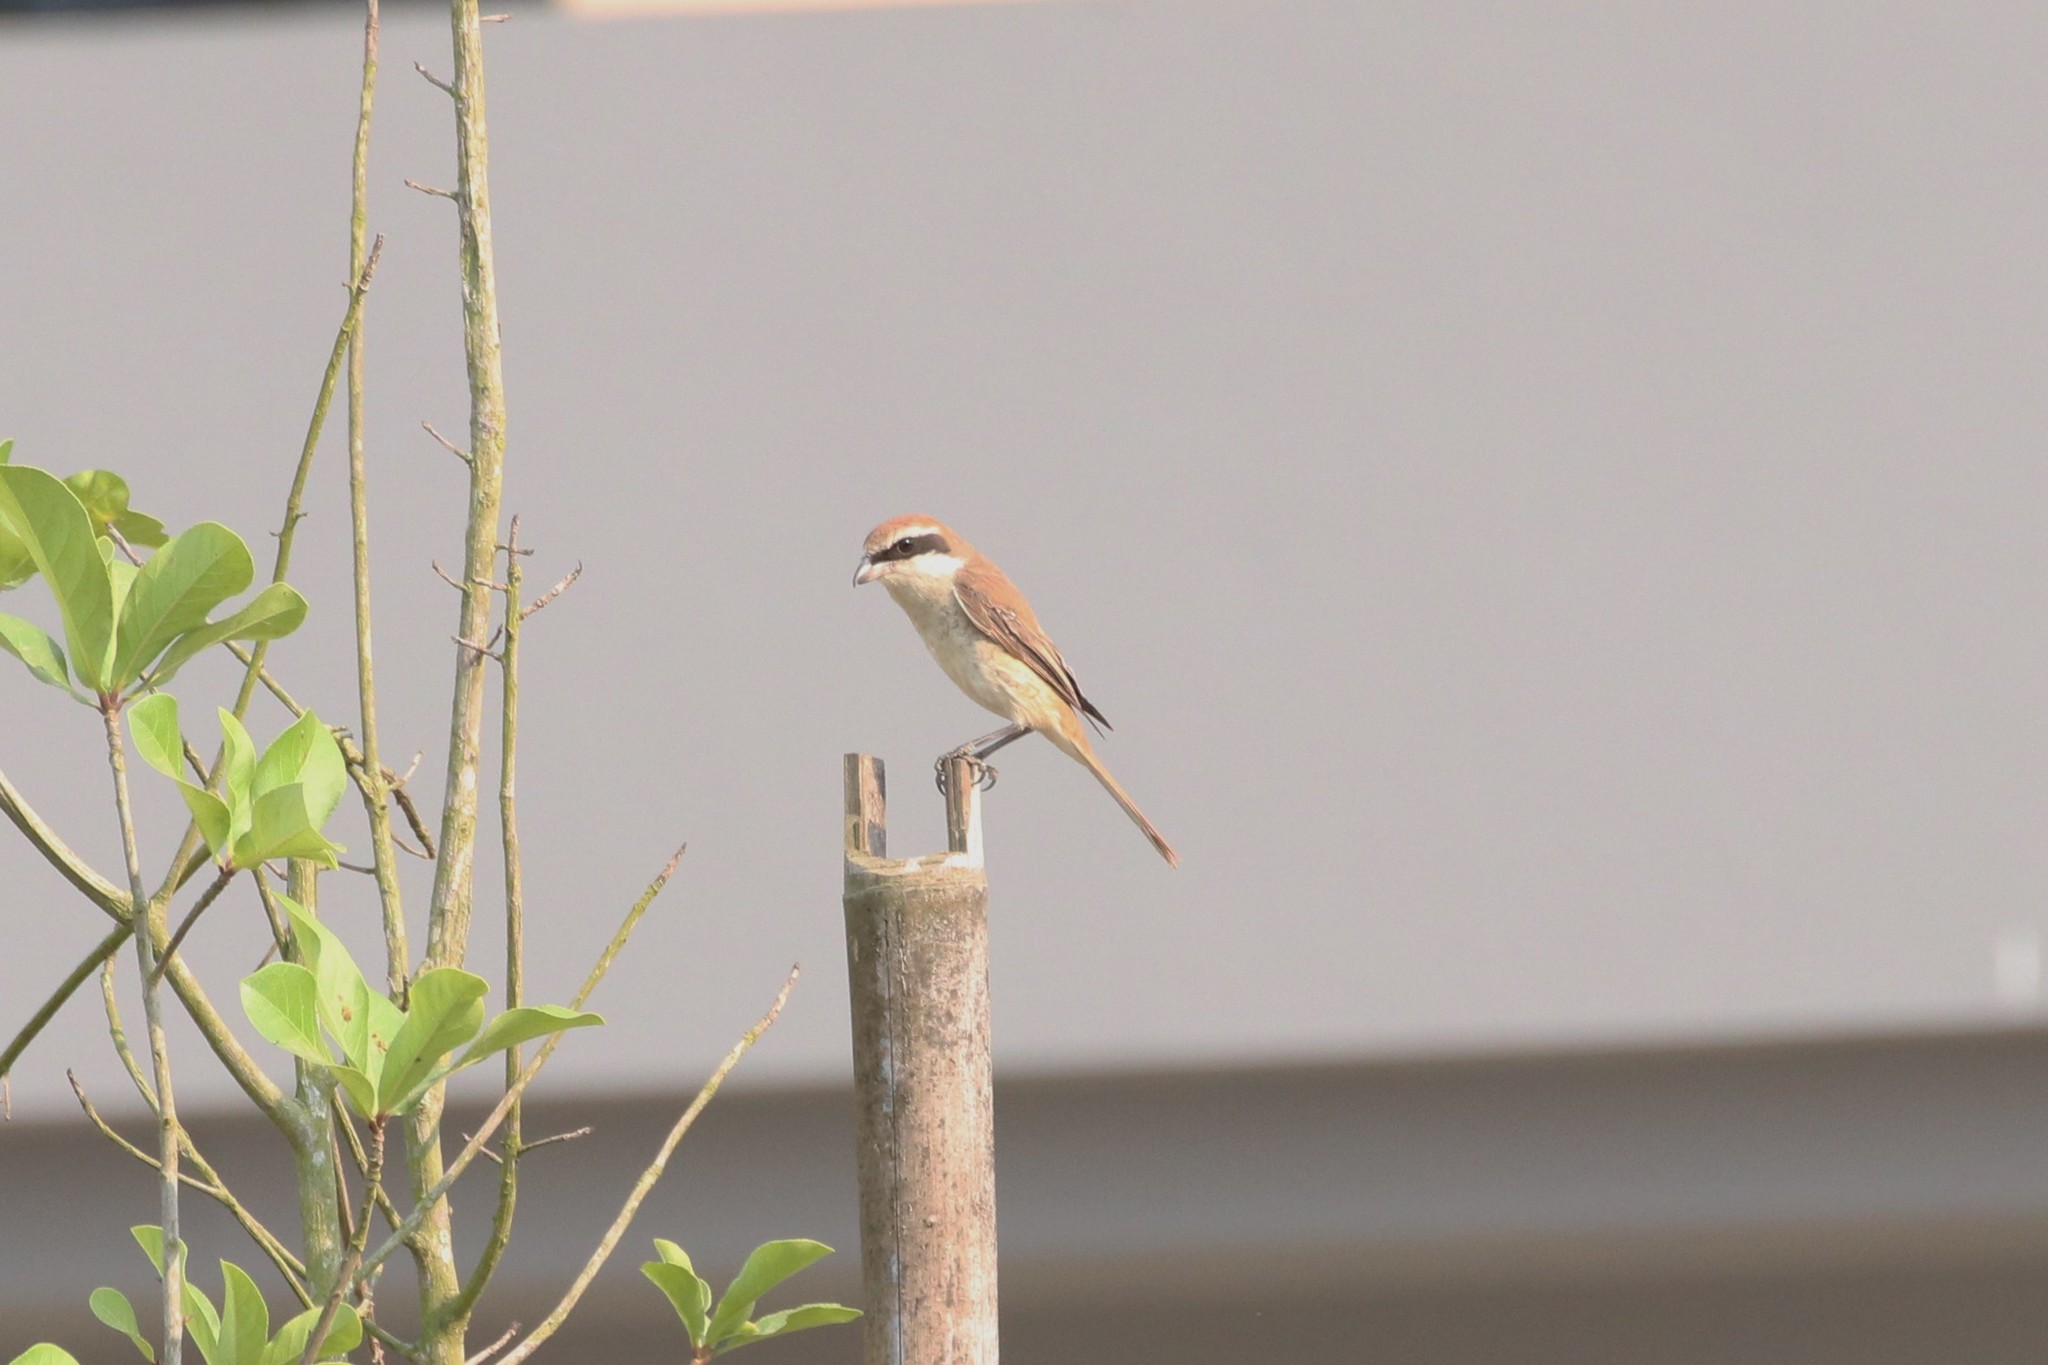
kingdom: Animalia
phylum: Chordata
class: Aves
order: Passeriformes
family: Laniidae
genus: Lanius
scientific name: Lanius cristatus
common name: Brown shrike
